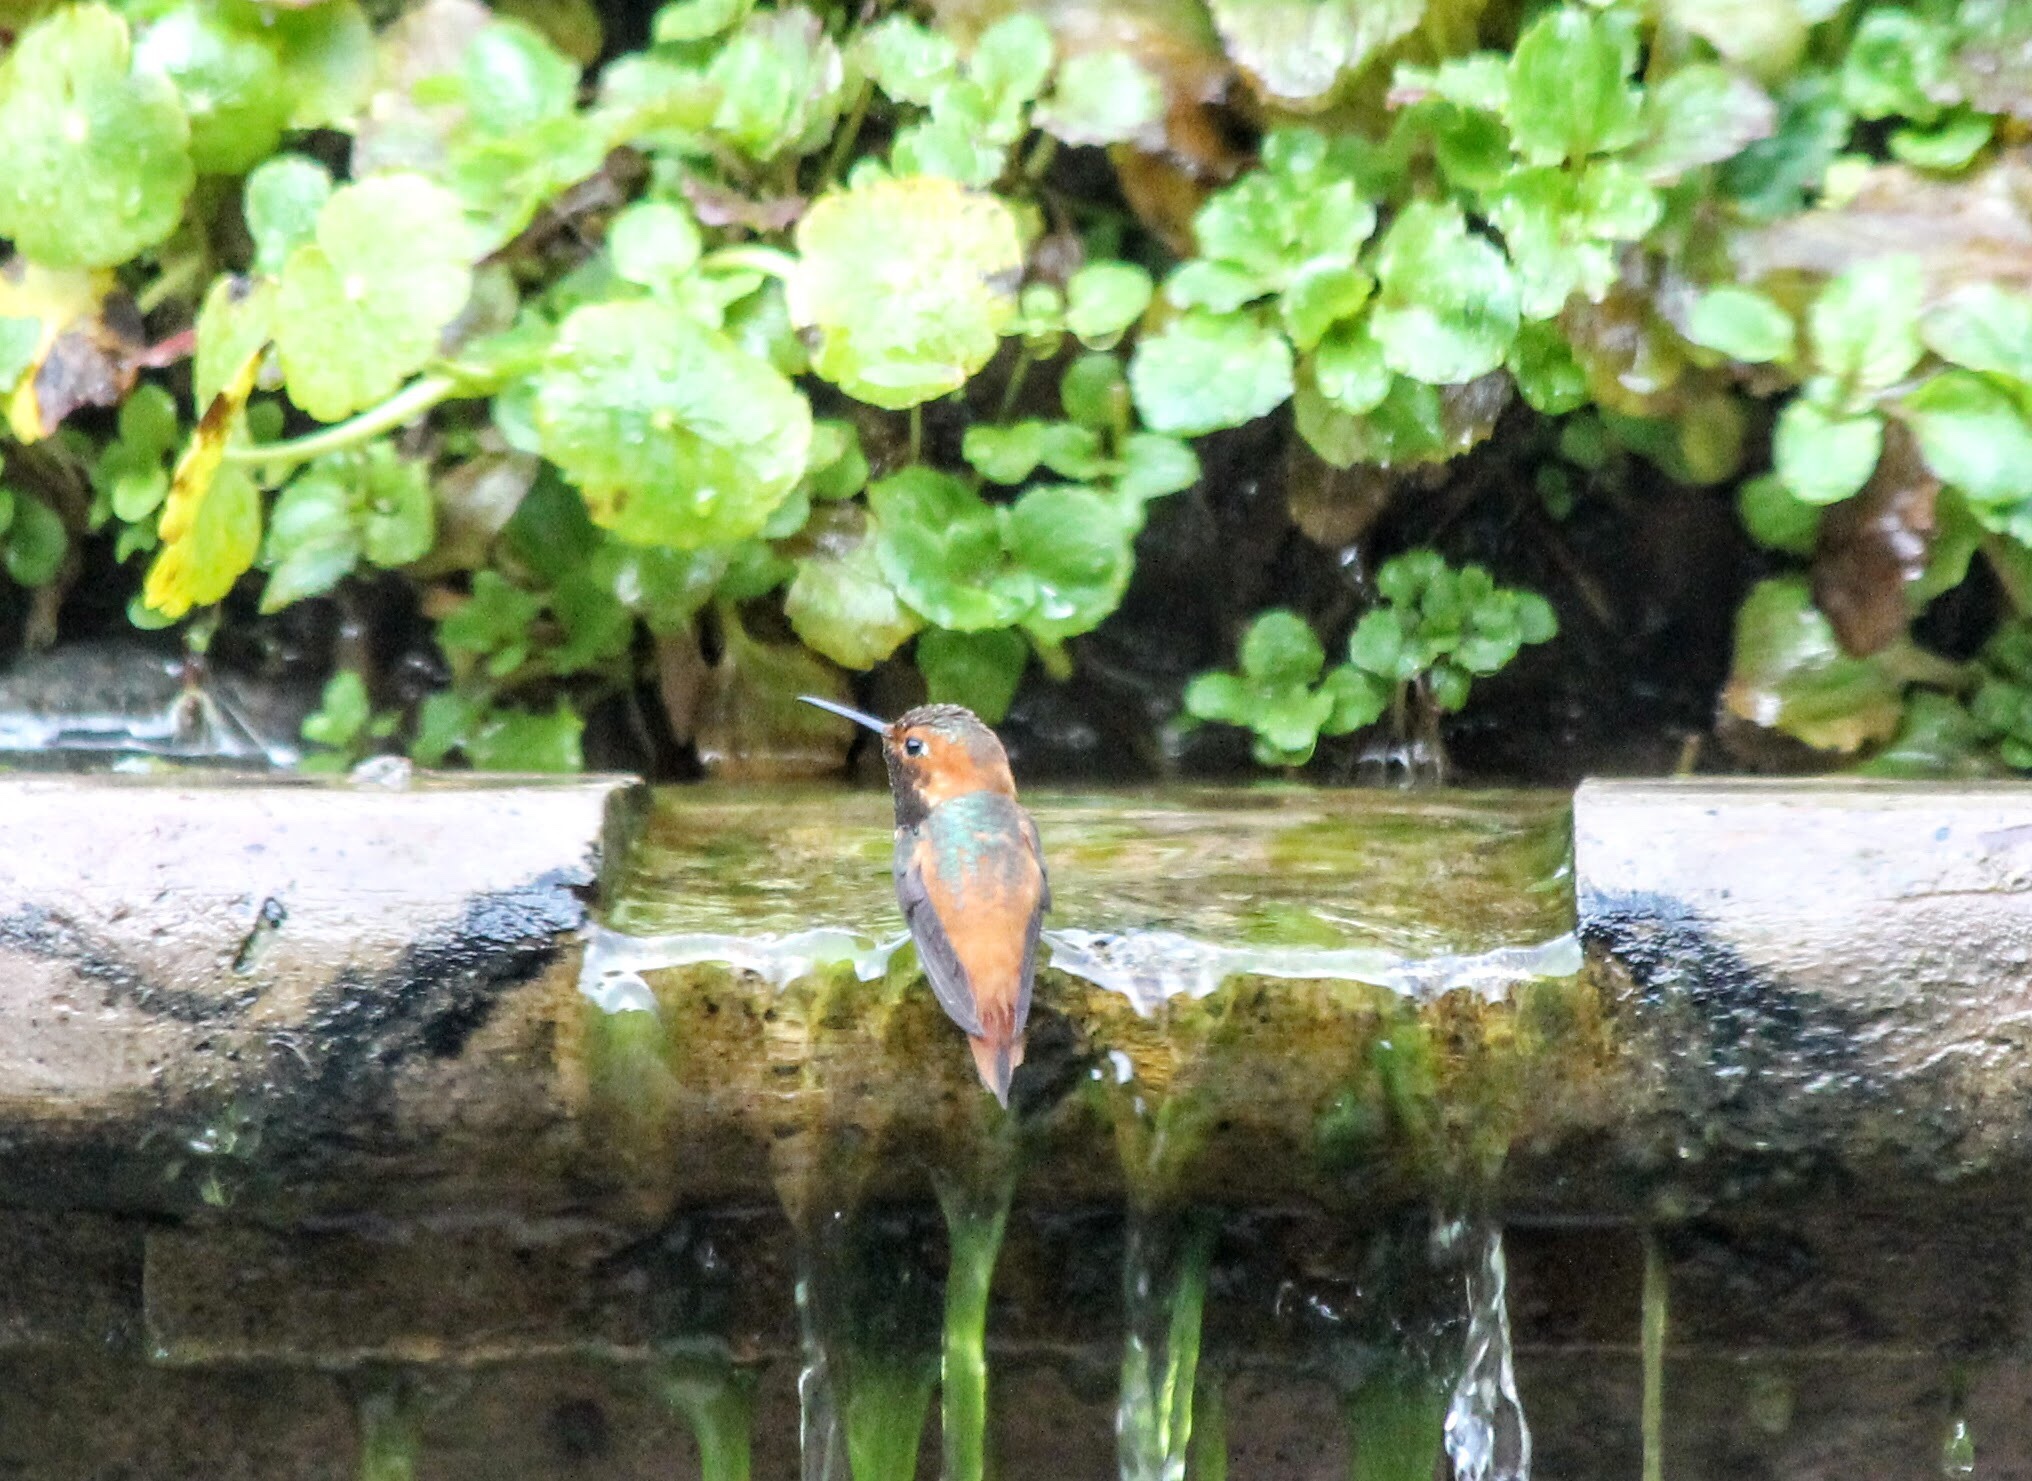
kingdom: Animalia
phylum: Chordata
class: Aves
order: Apodiformes
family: Trochilidae
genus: Selasphorus
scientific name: Selasphorus
